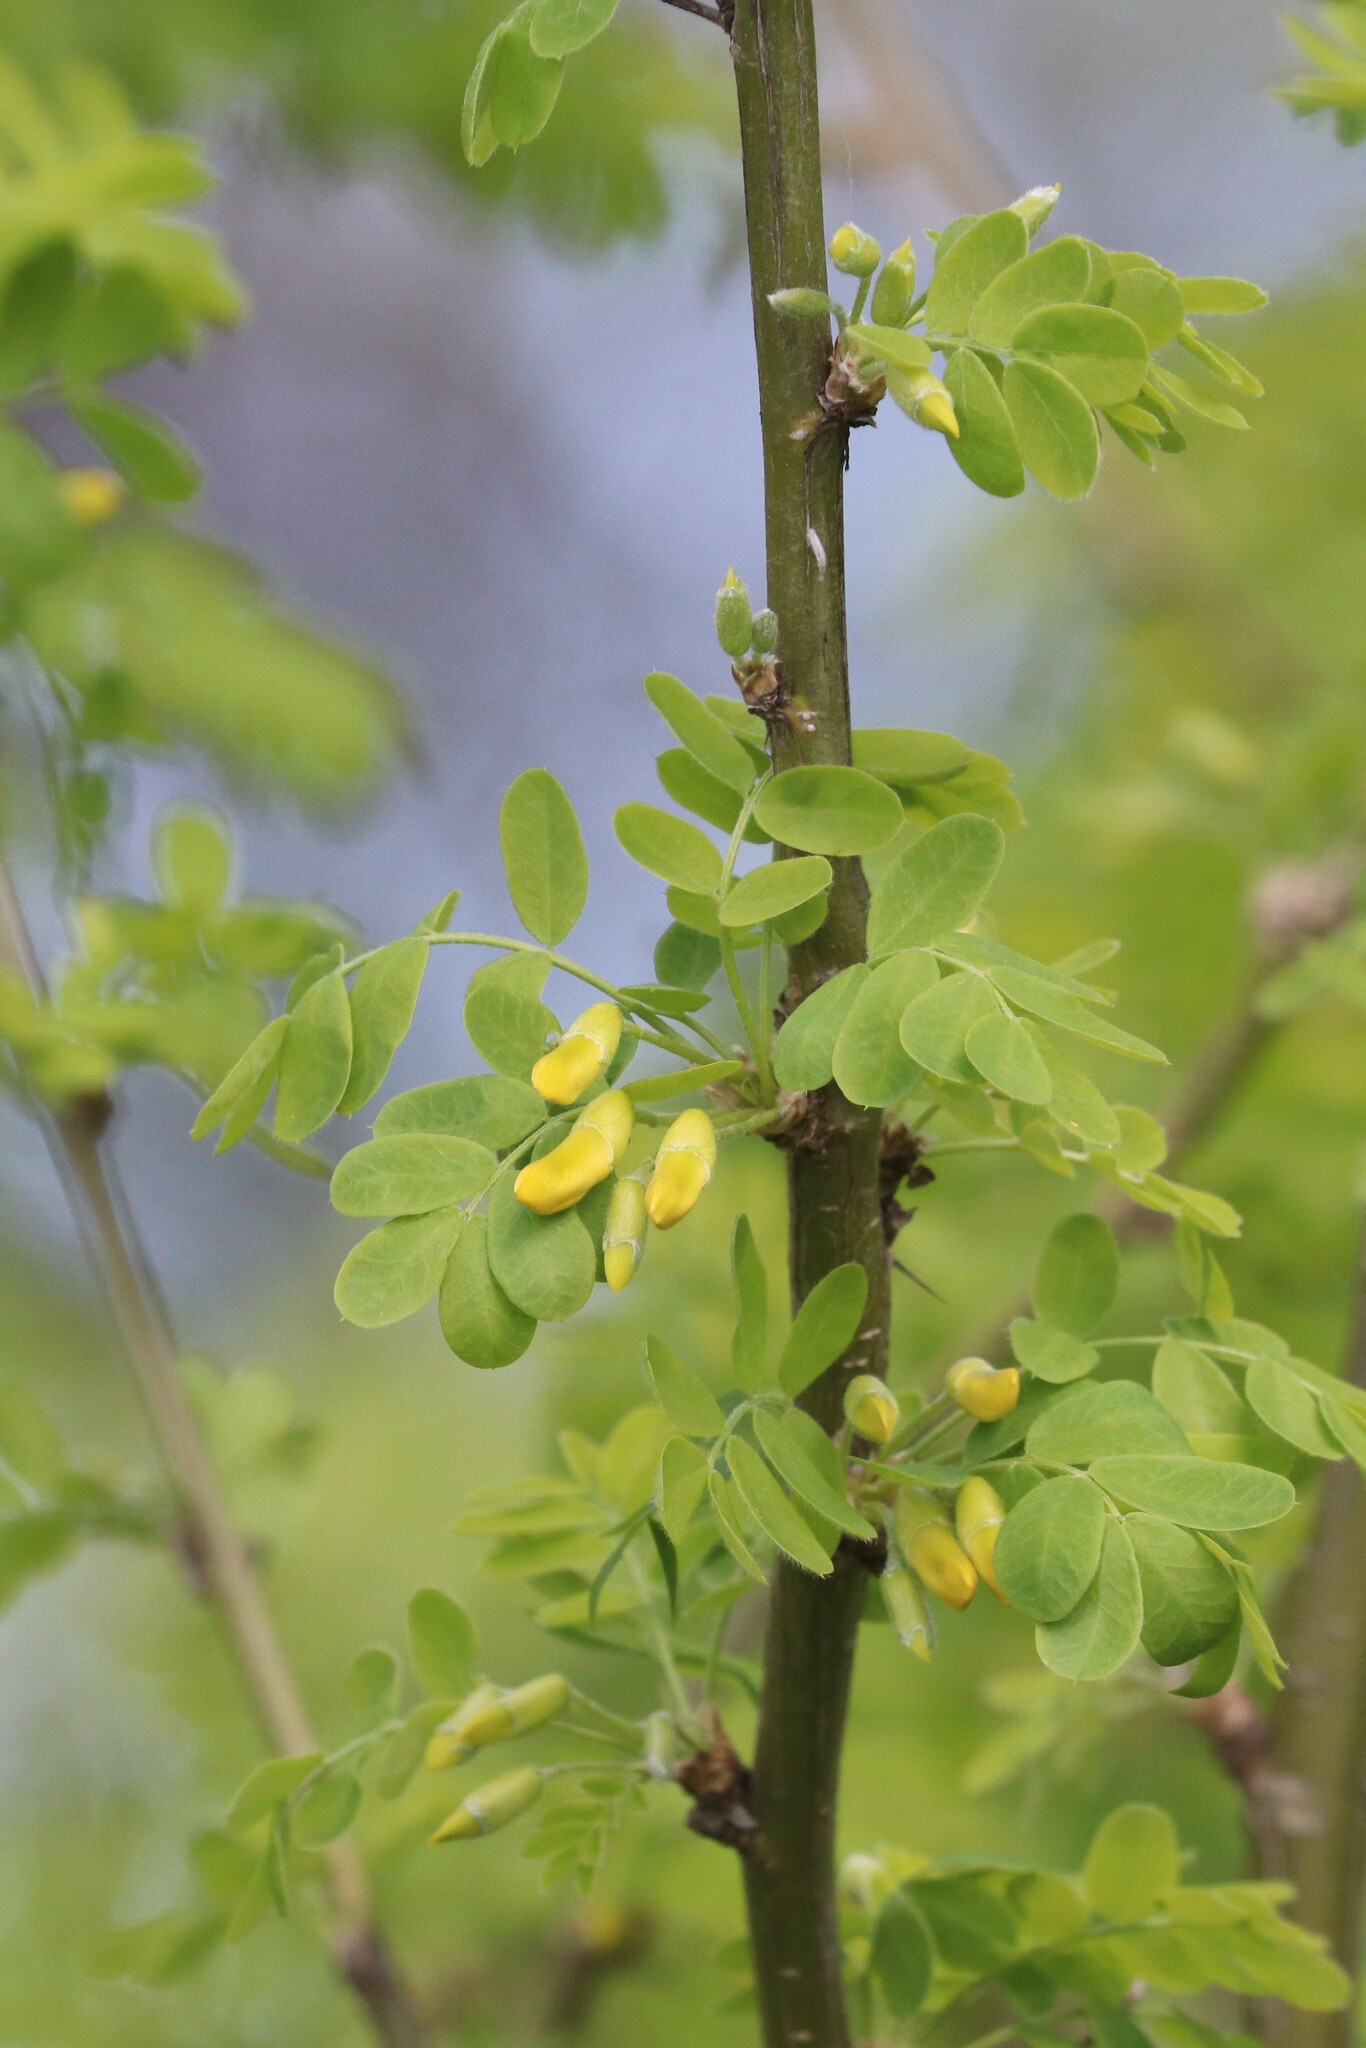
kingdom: Plantae
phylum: Tracheophyta
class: Magnoliopsida
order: Fabales
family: Fabaceae
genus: Caragana
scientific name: Caragana arborescens
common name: Siberian peashrub
